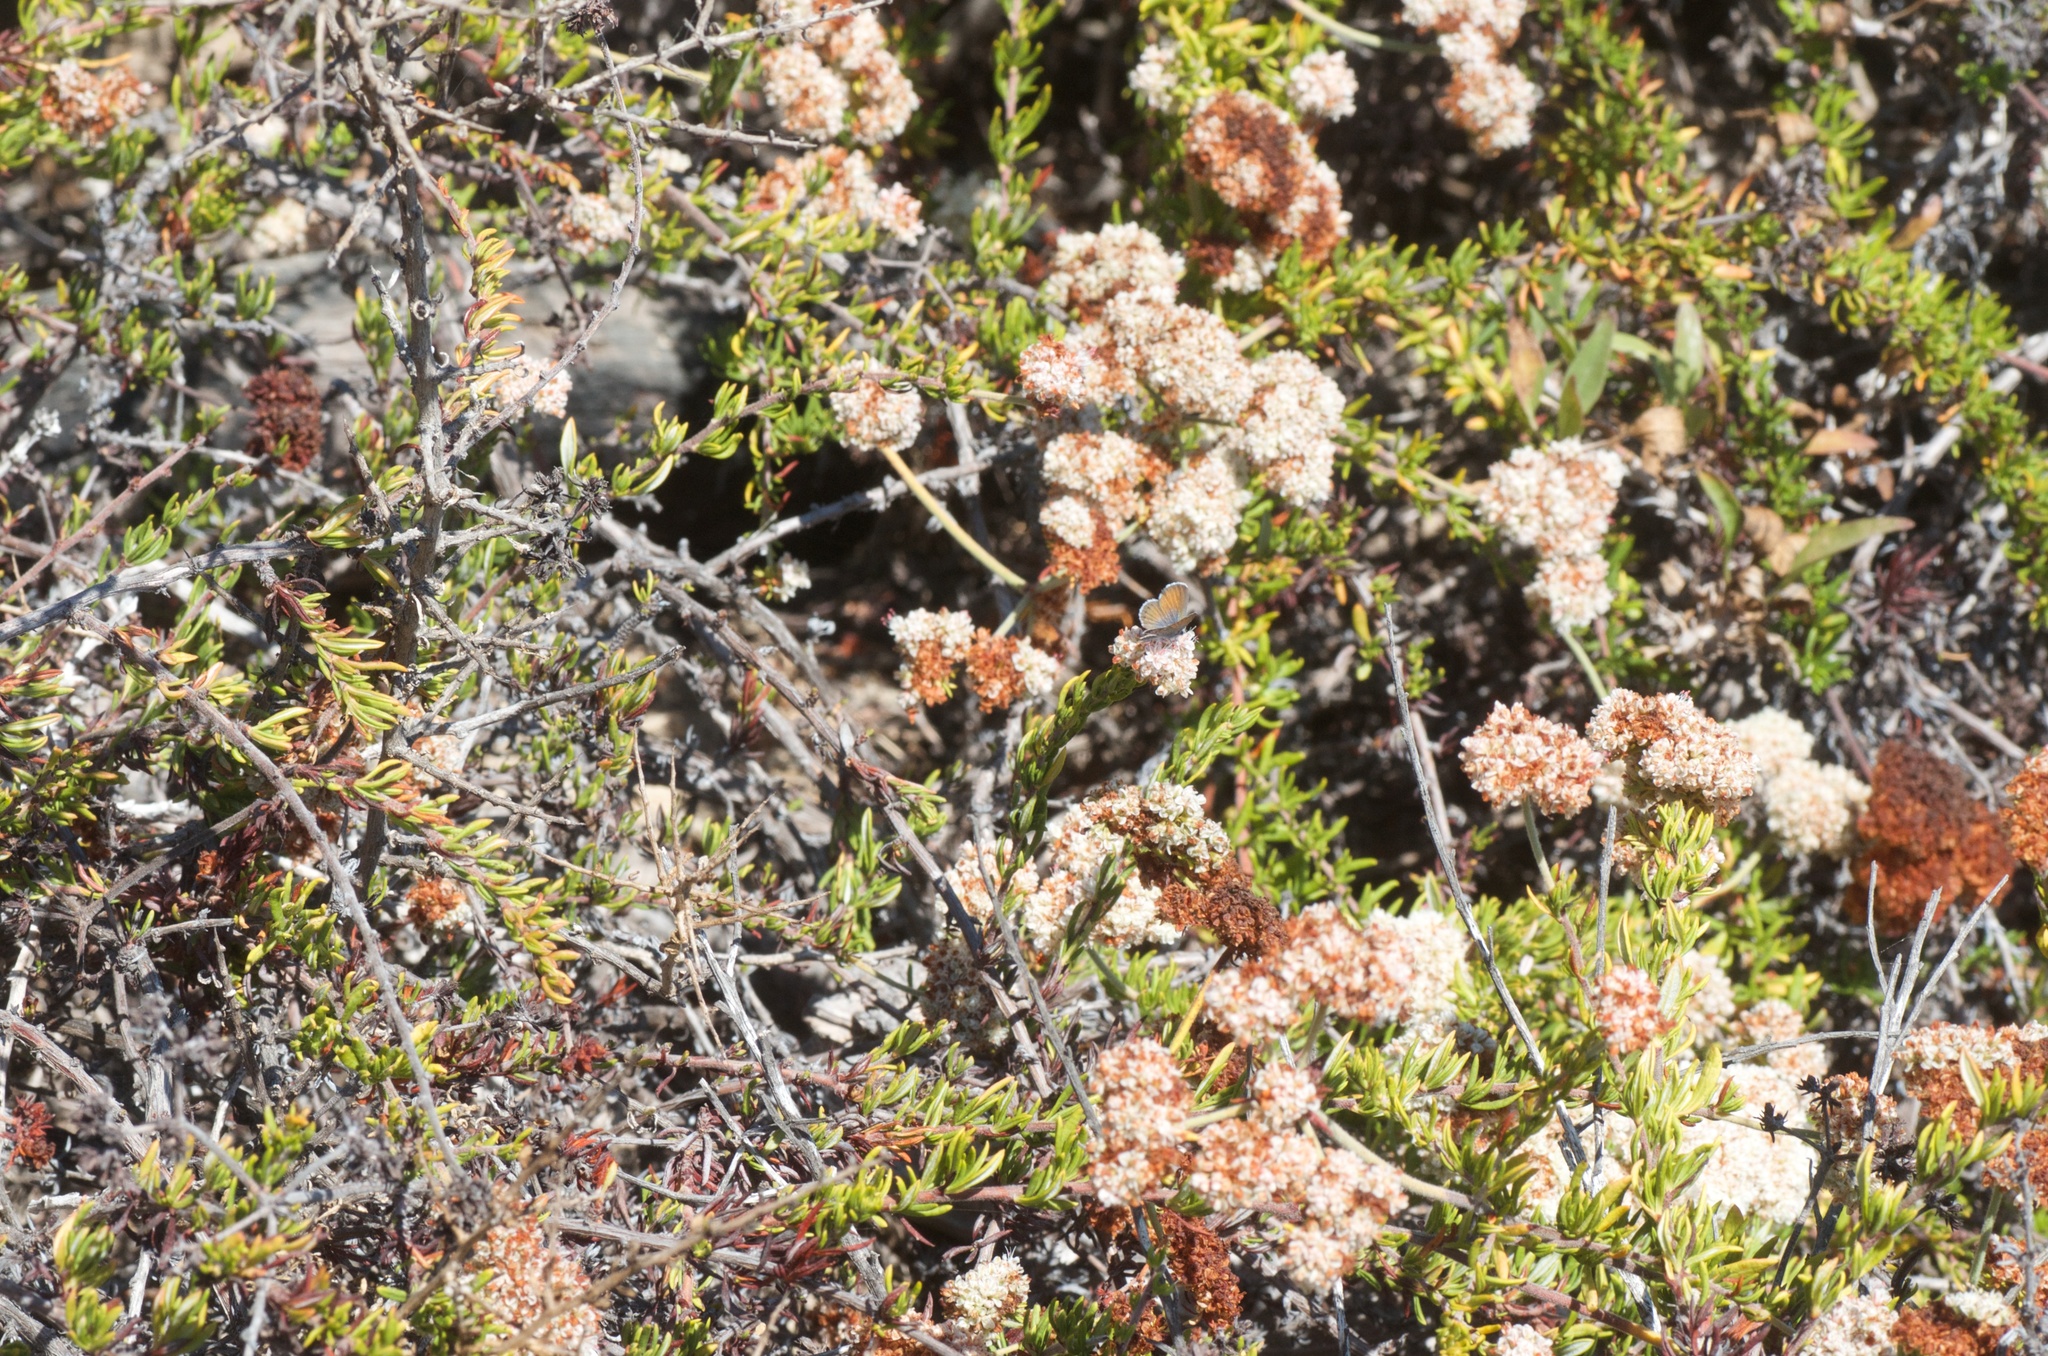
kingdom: Animalia
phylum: Arthropoda
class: Insecta
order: Lepidoptera
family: Lycaenidae
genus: Brephidium
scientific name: Brephidium exilis
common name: Pygmy blue
